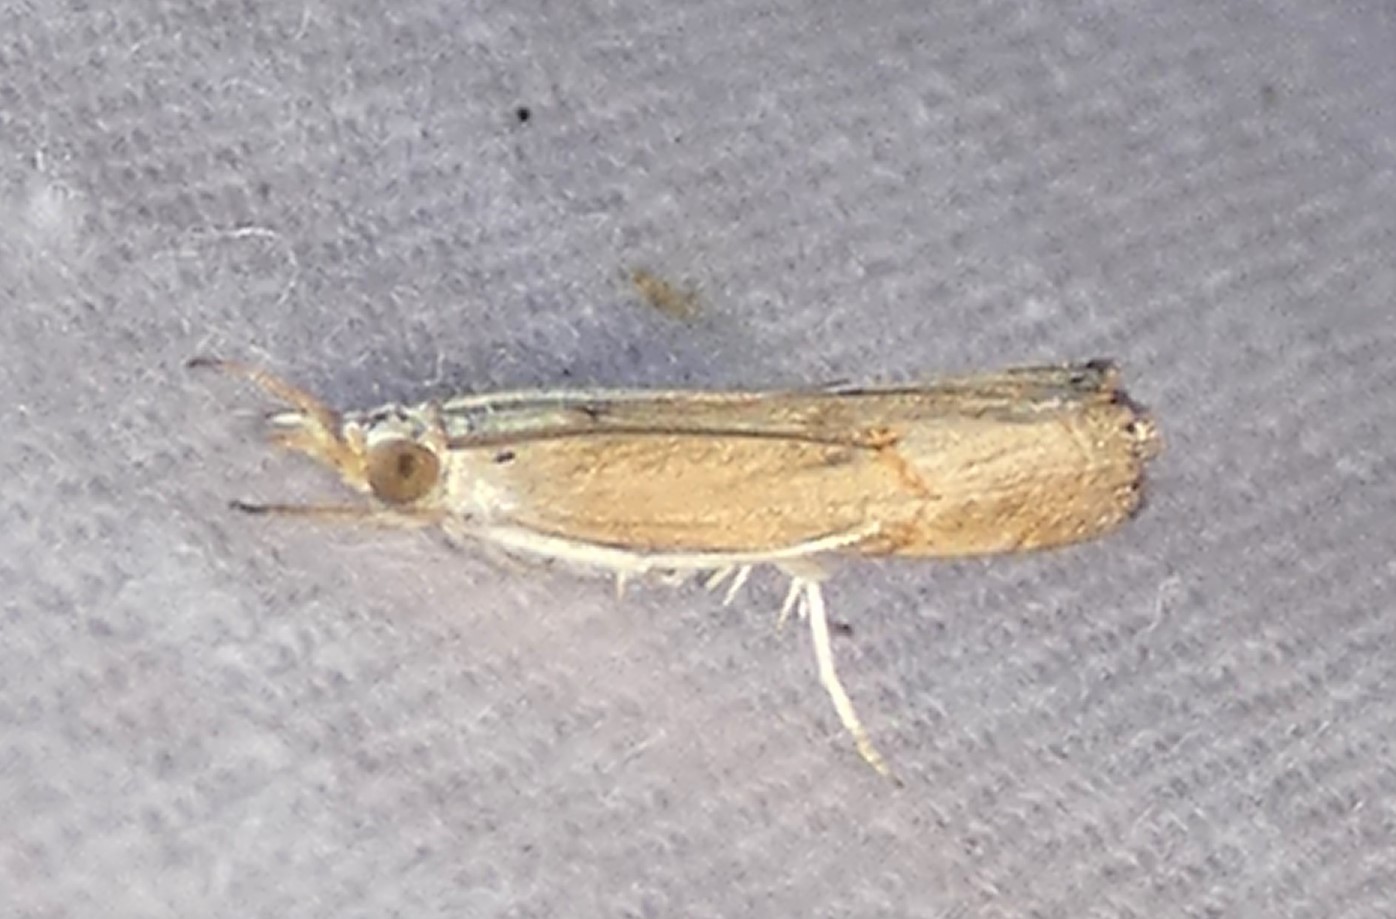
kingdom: Animalia
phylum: Arthropoda
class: Insecta
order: Lepidoptera
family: Crambidae
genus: Parapediasia
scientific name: Parapediasia teterellus
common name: Bluegrass webworm moth
